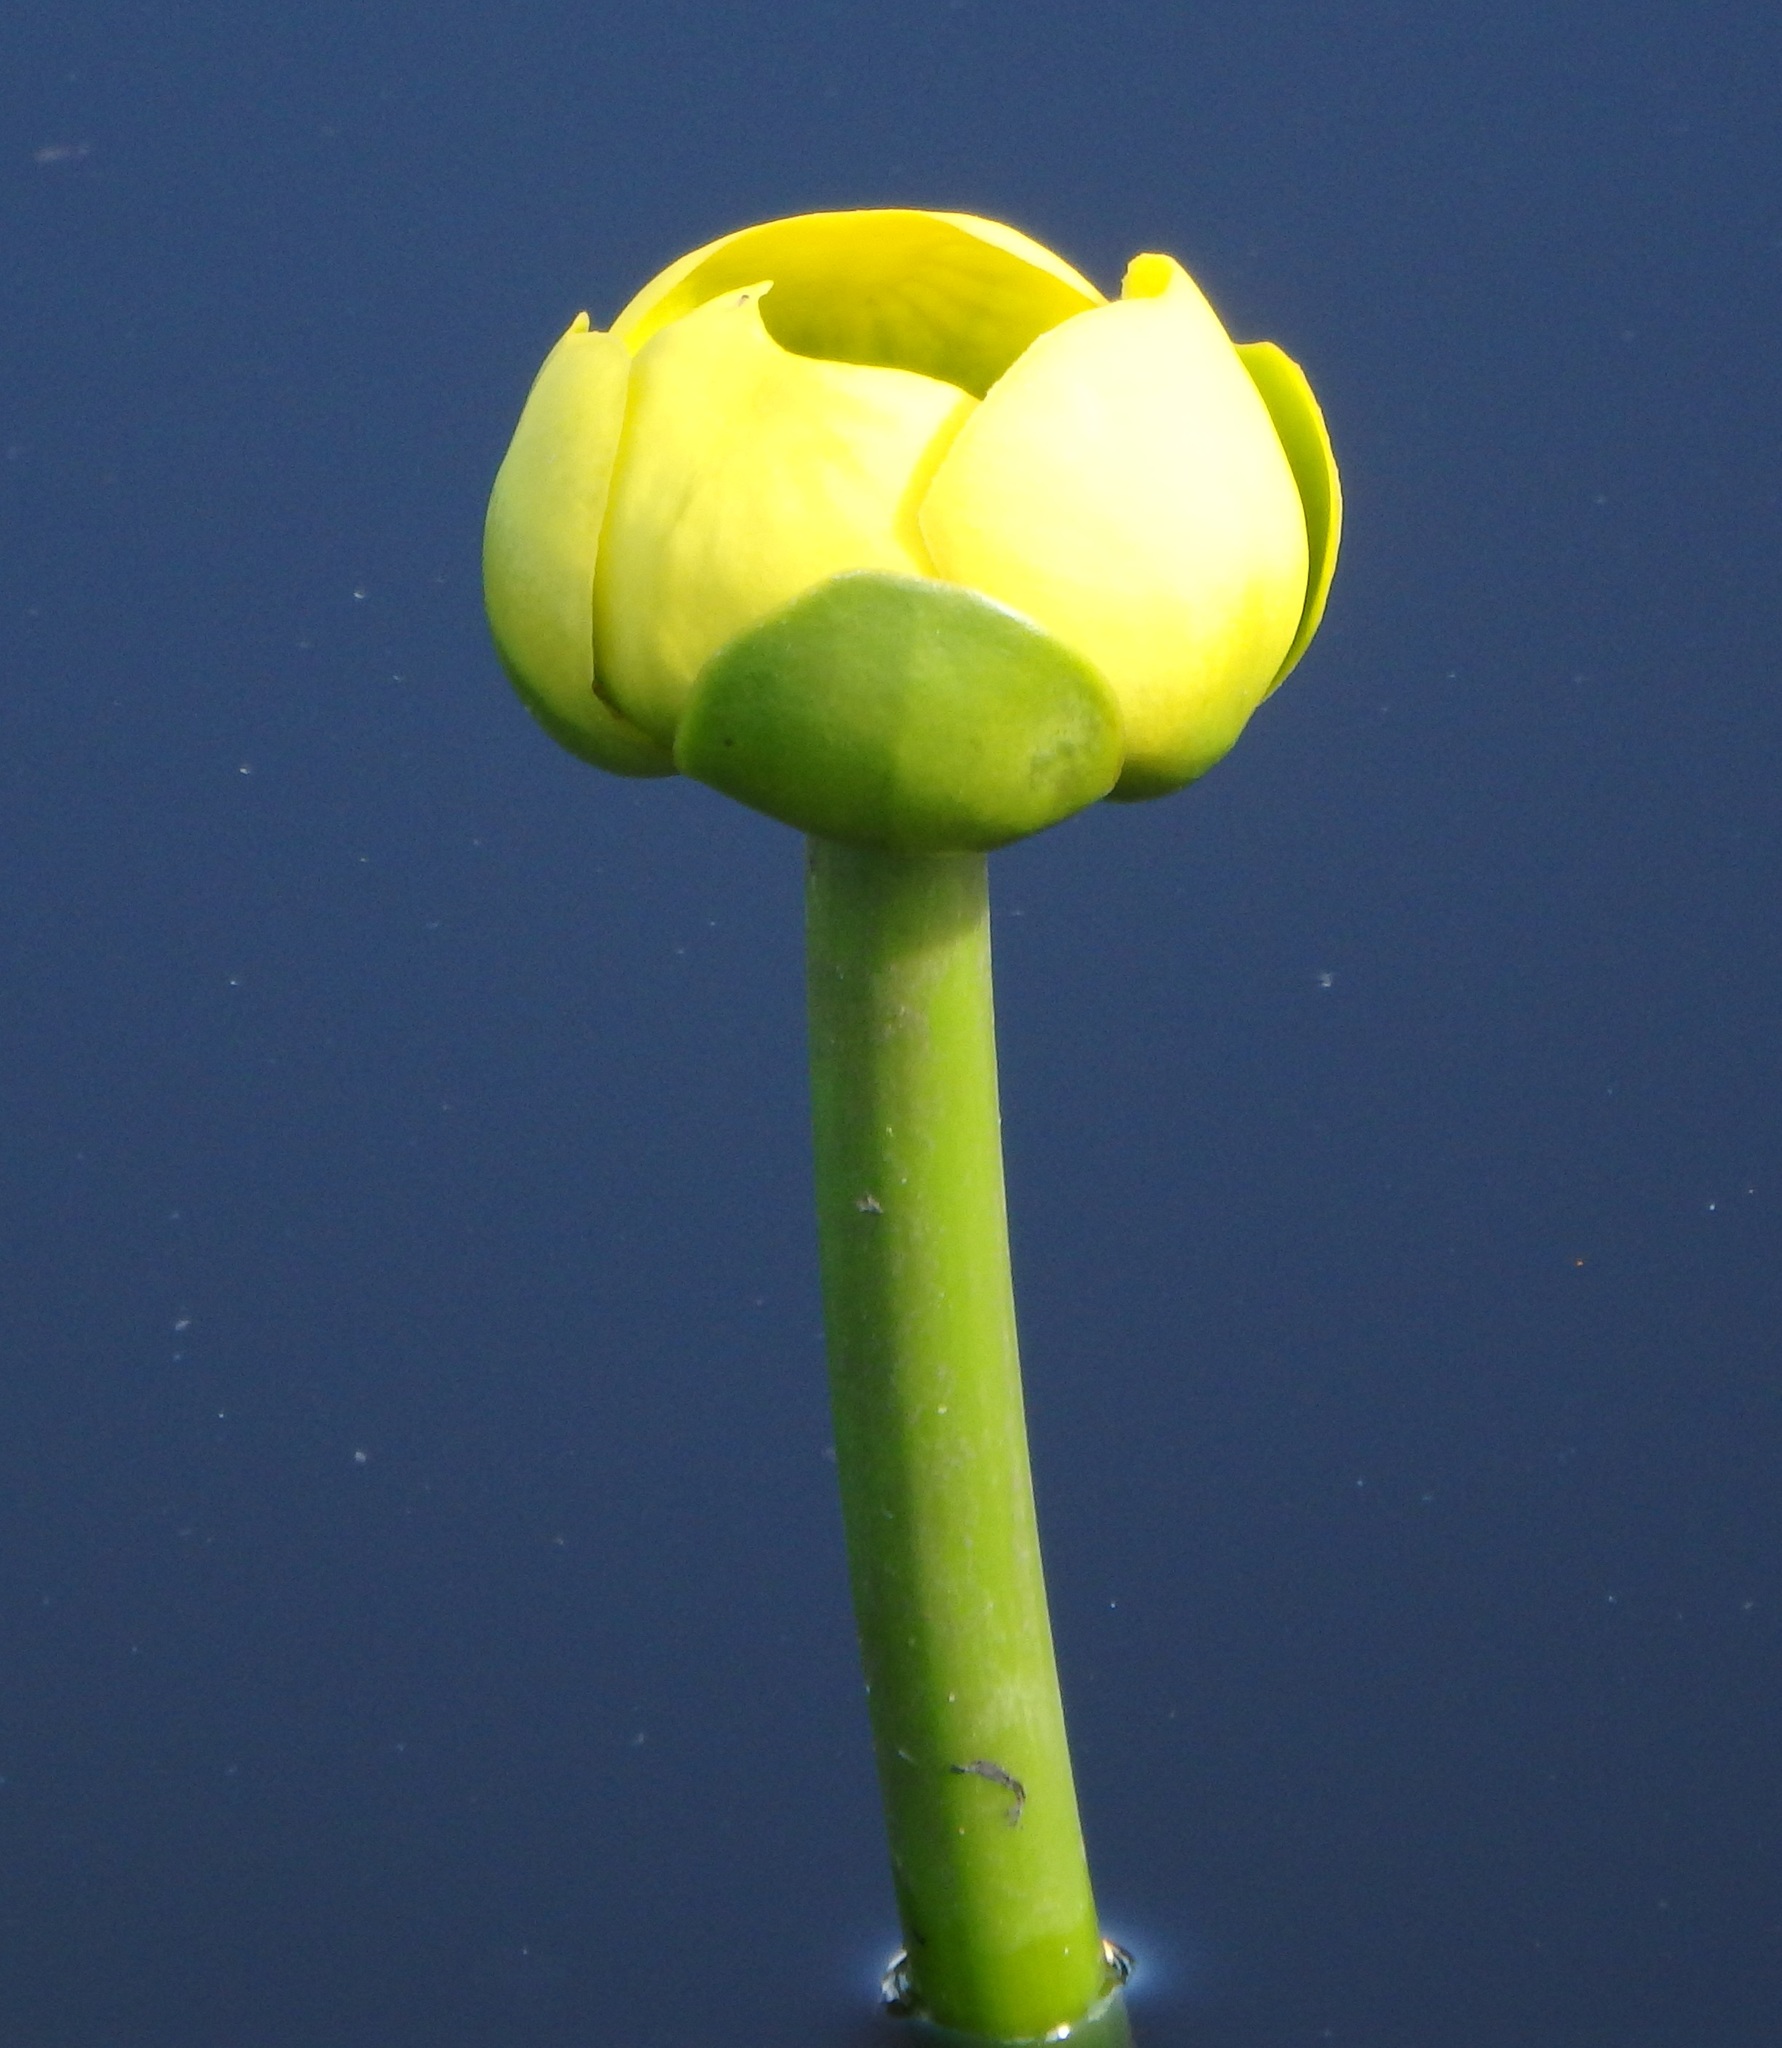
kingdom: Plantae
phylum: Tracheophyta
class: Magnoliopsida
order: Nymphaeales
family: Nymphaeaceae
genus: Nuphar
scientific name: Nuphar advena
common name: Spatter-dock
